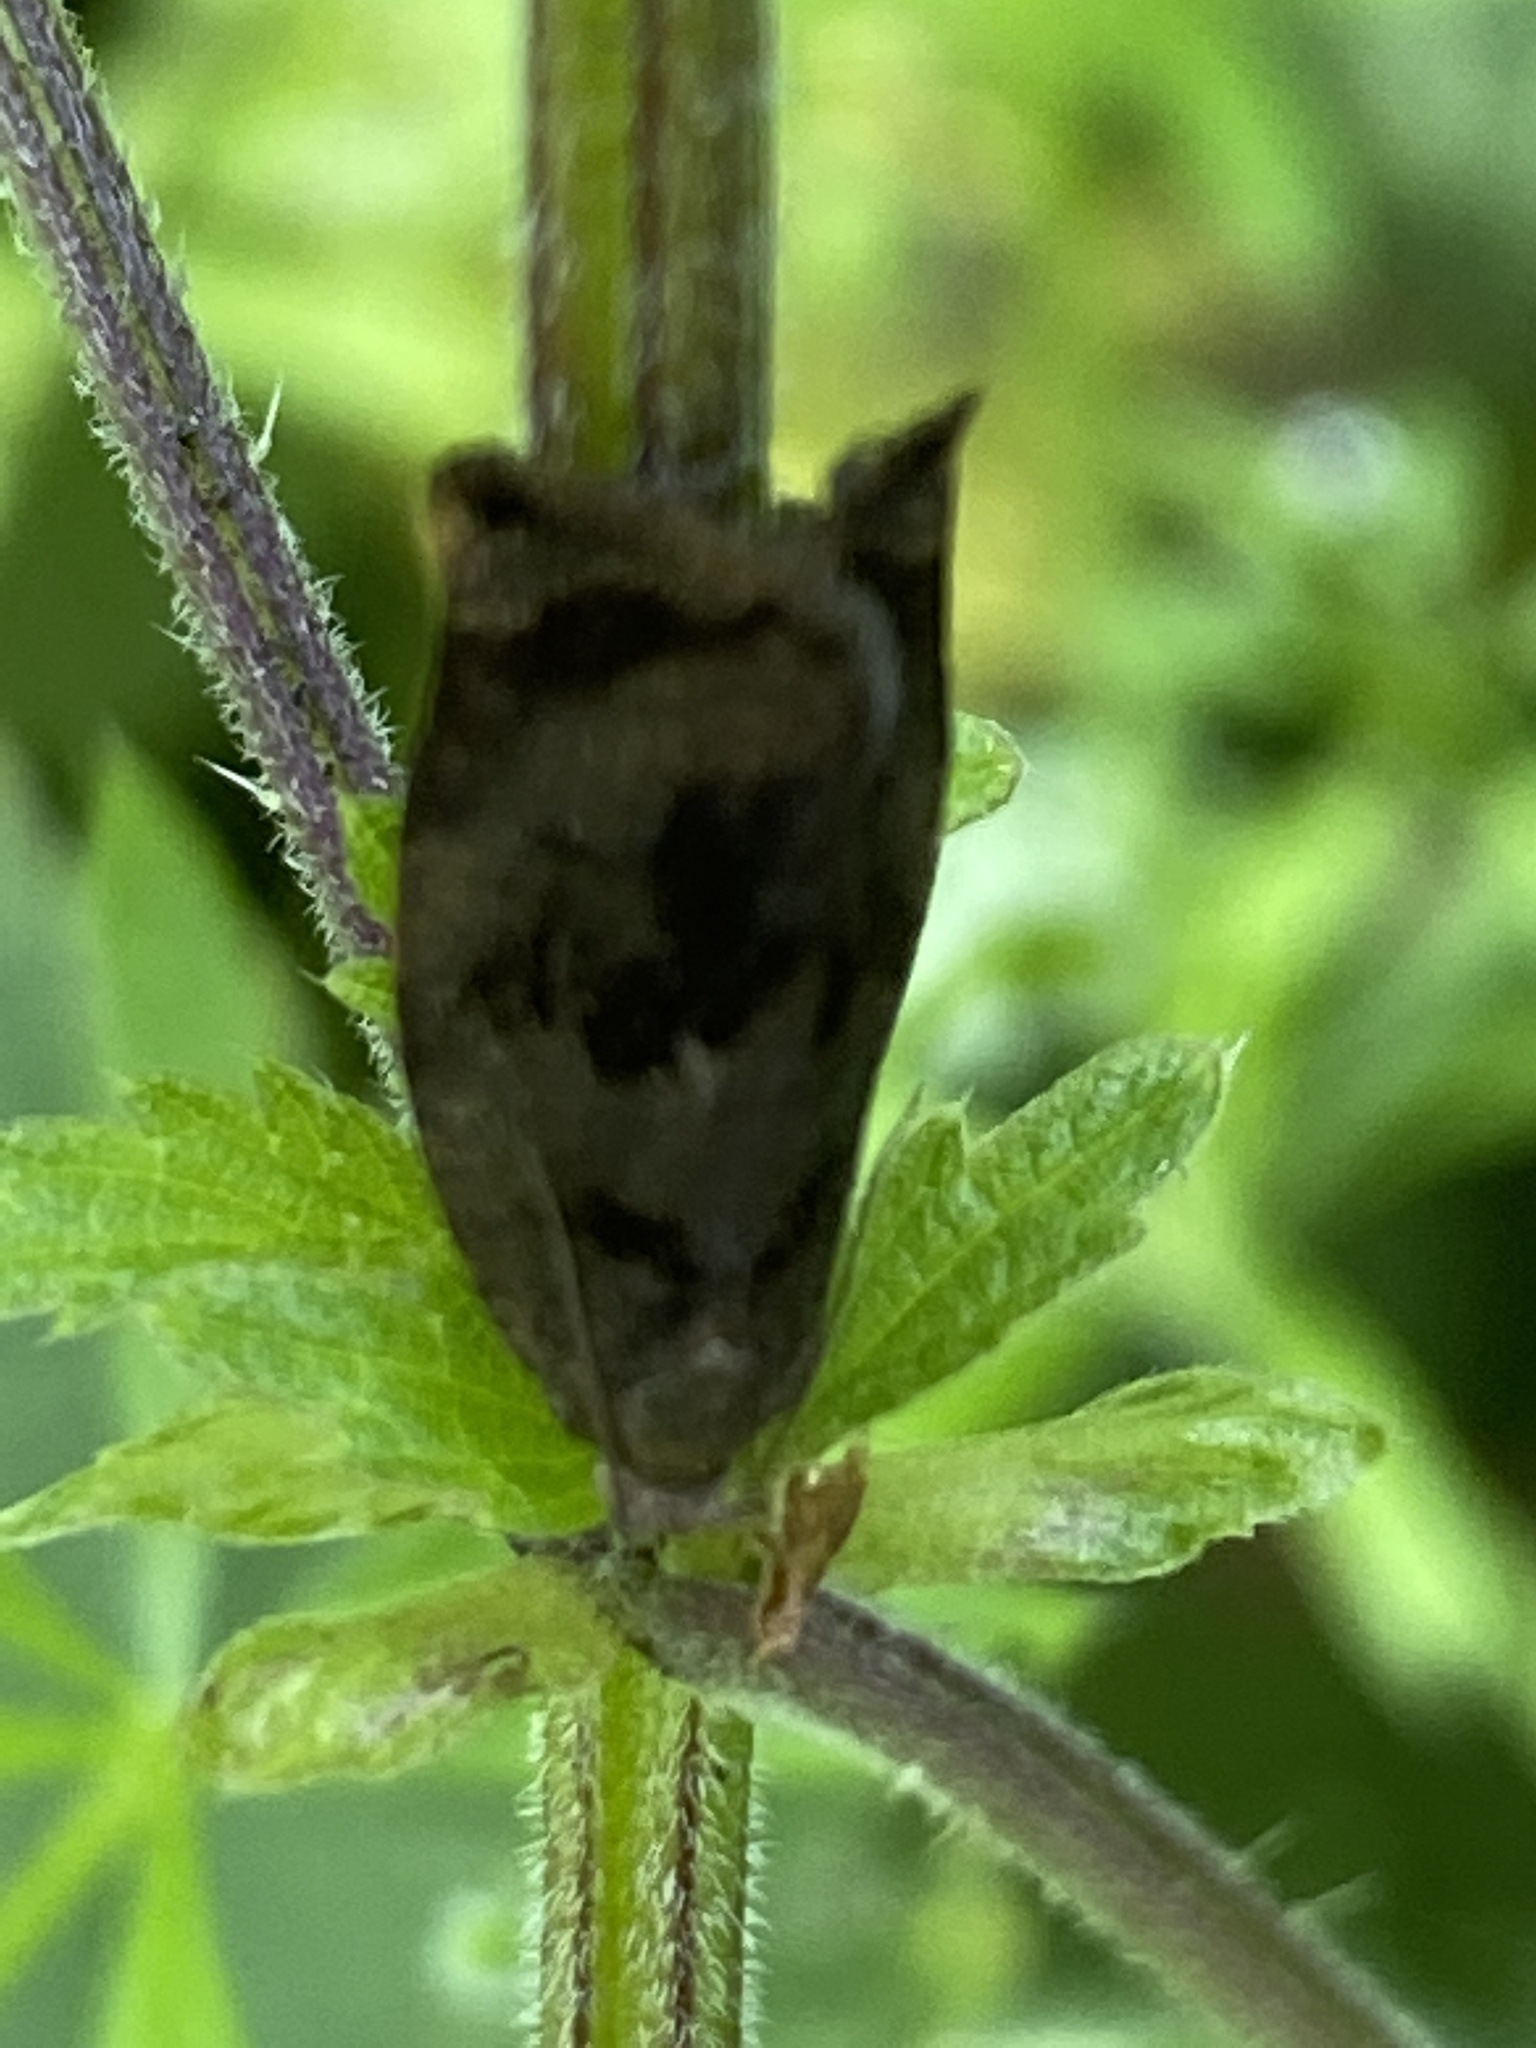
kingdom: Animalia
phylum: Arthropoda
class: Insecta
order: Lepidoptera
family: Tortricidae
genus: Archips
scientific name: Archips crataegana
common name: Brown oak tortrix
